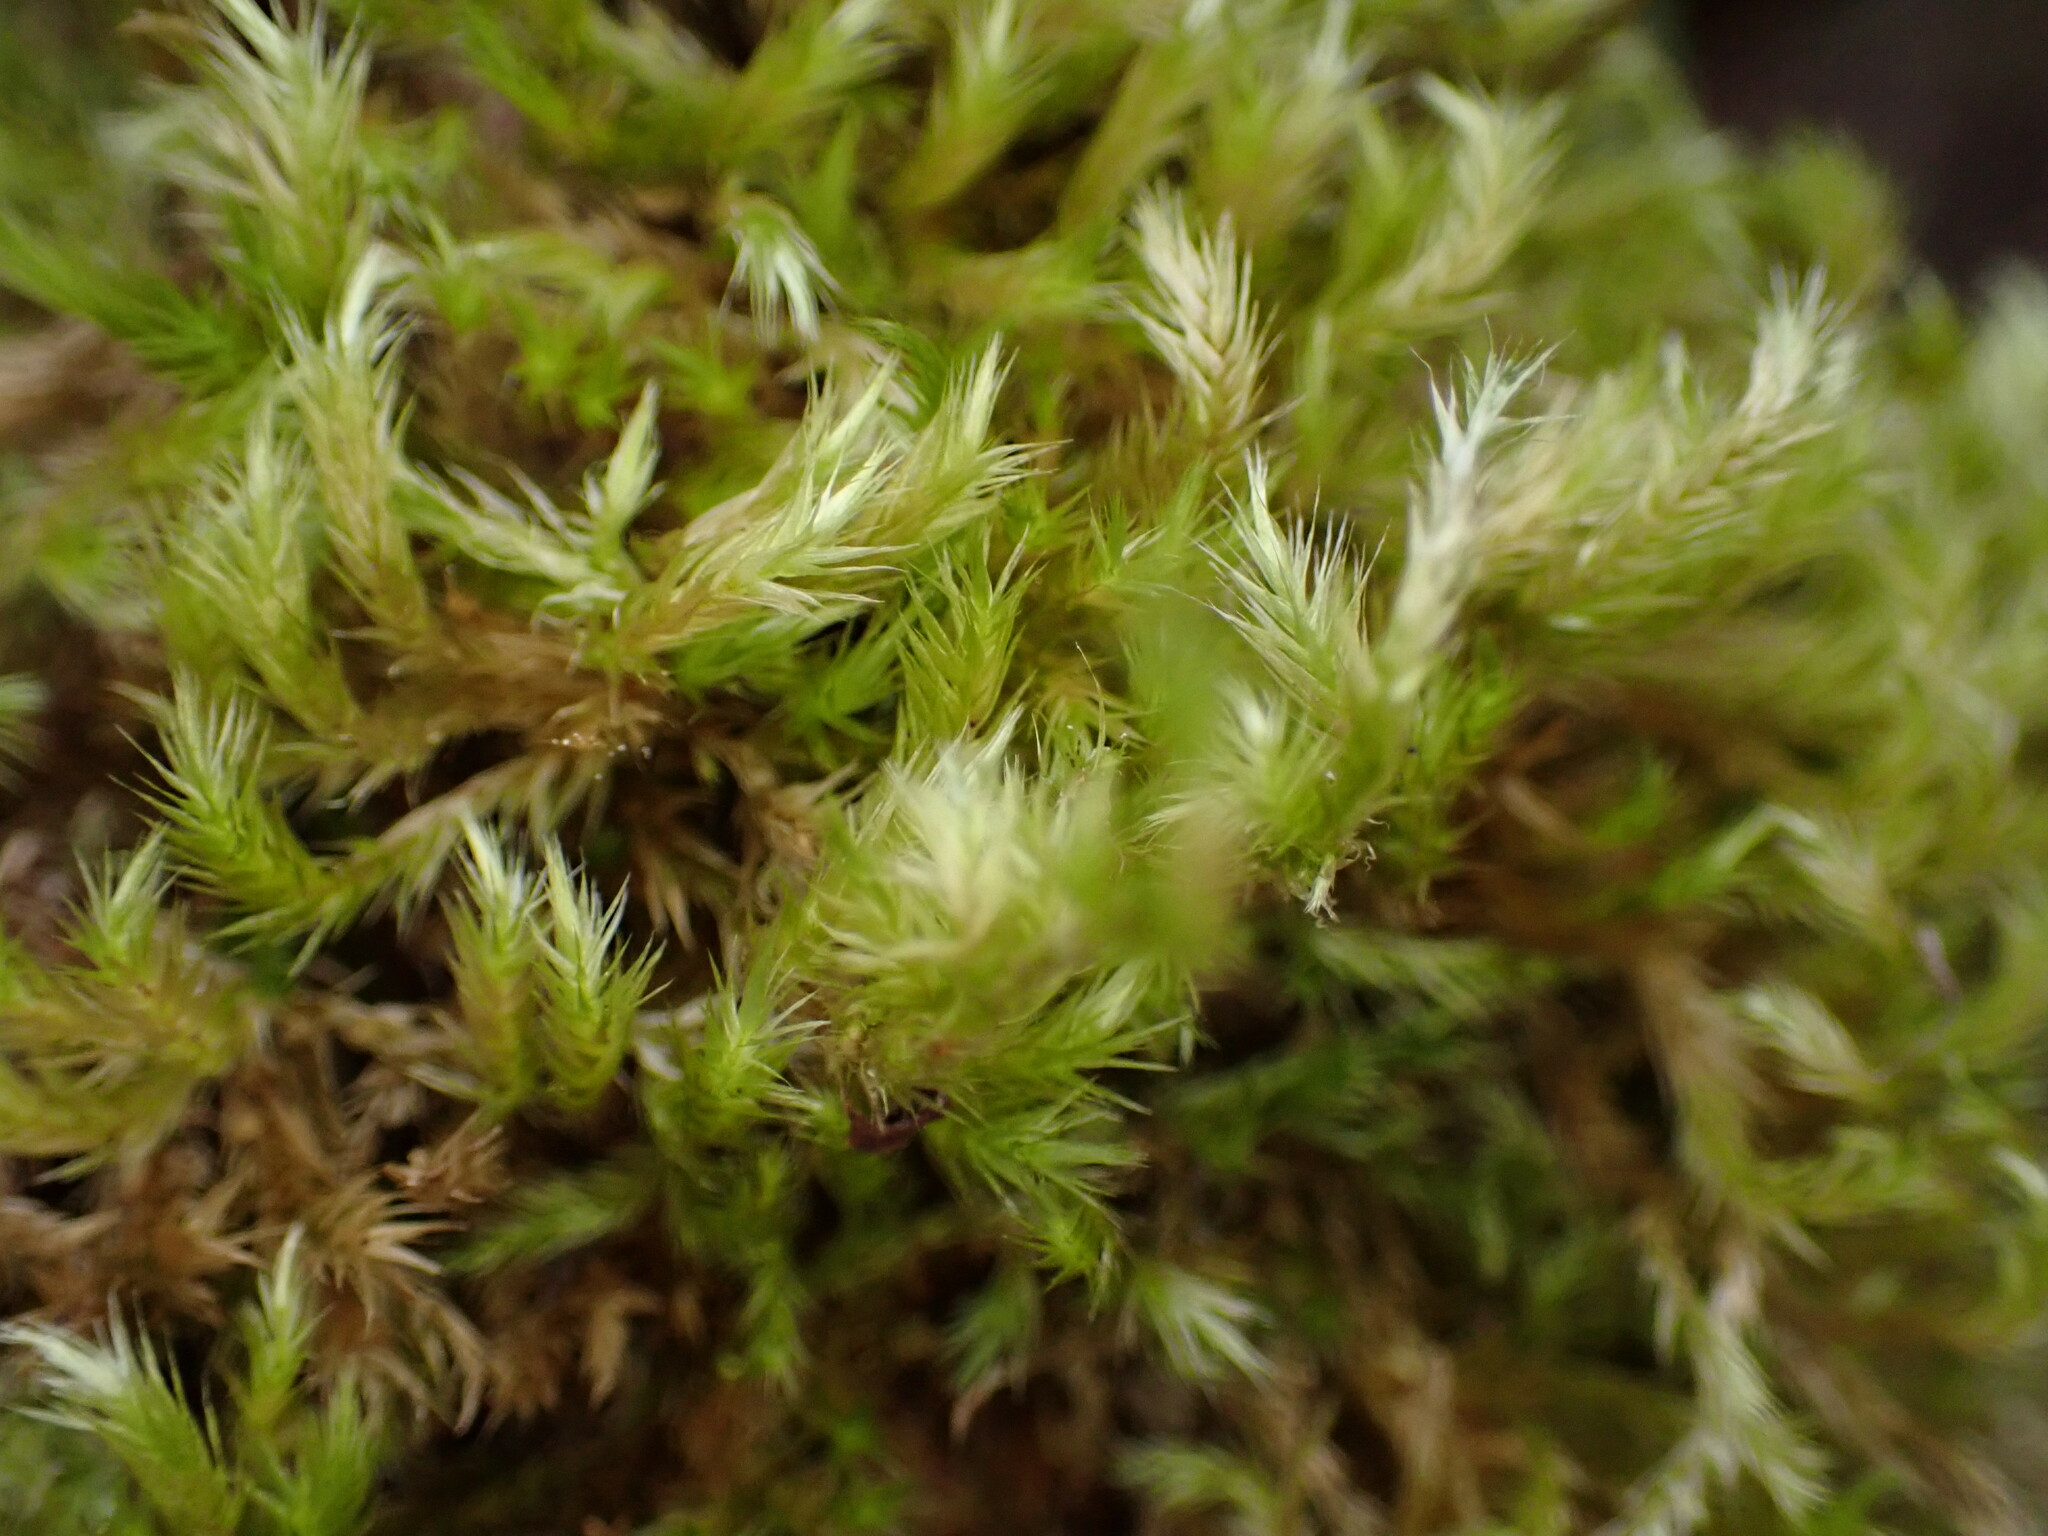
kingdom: Plantae
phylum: Bryophyta
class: Bryopsida
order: Hypnales
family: Brachytheciaceae
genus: Homalothecium
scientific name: Homalothecium fulgescens
